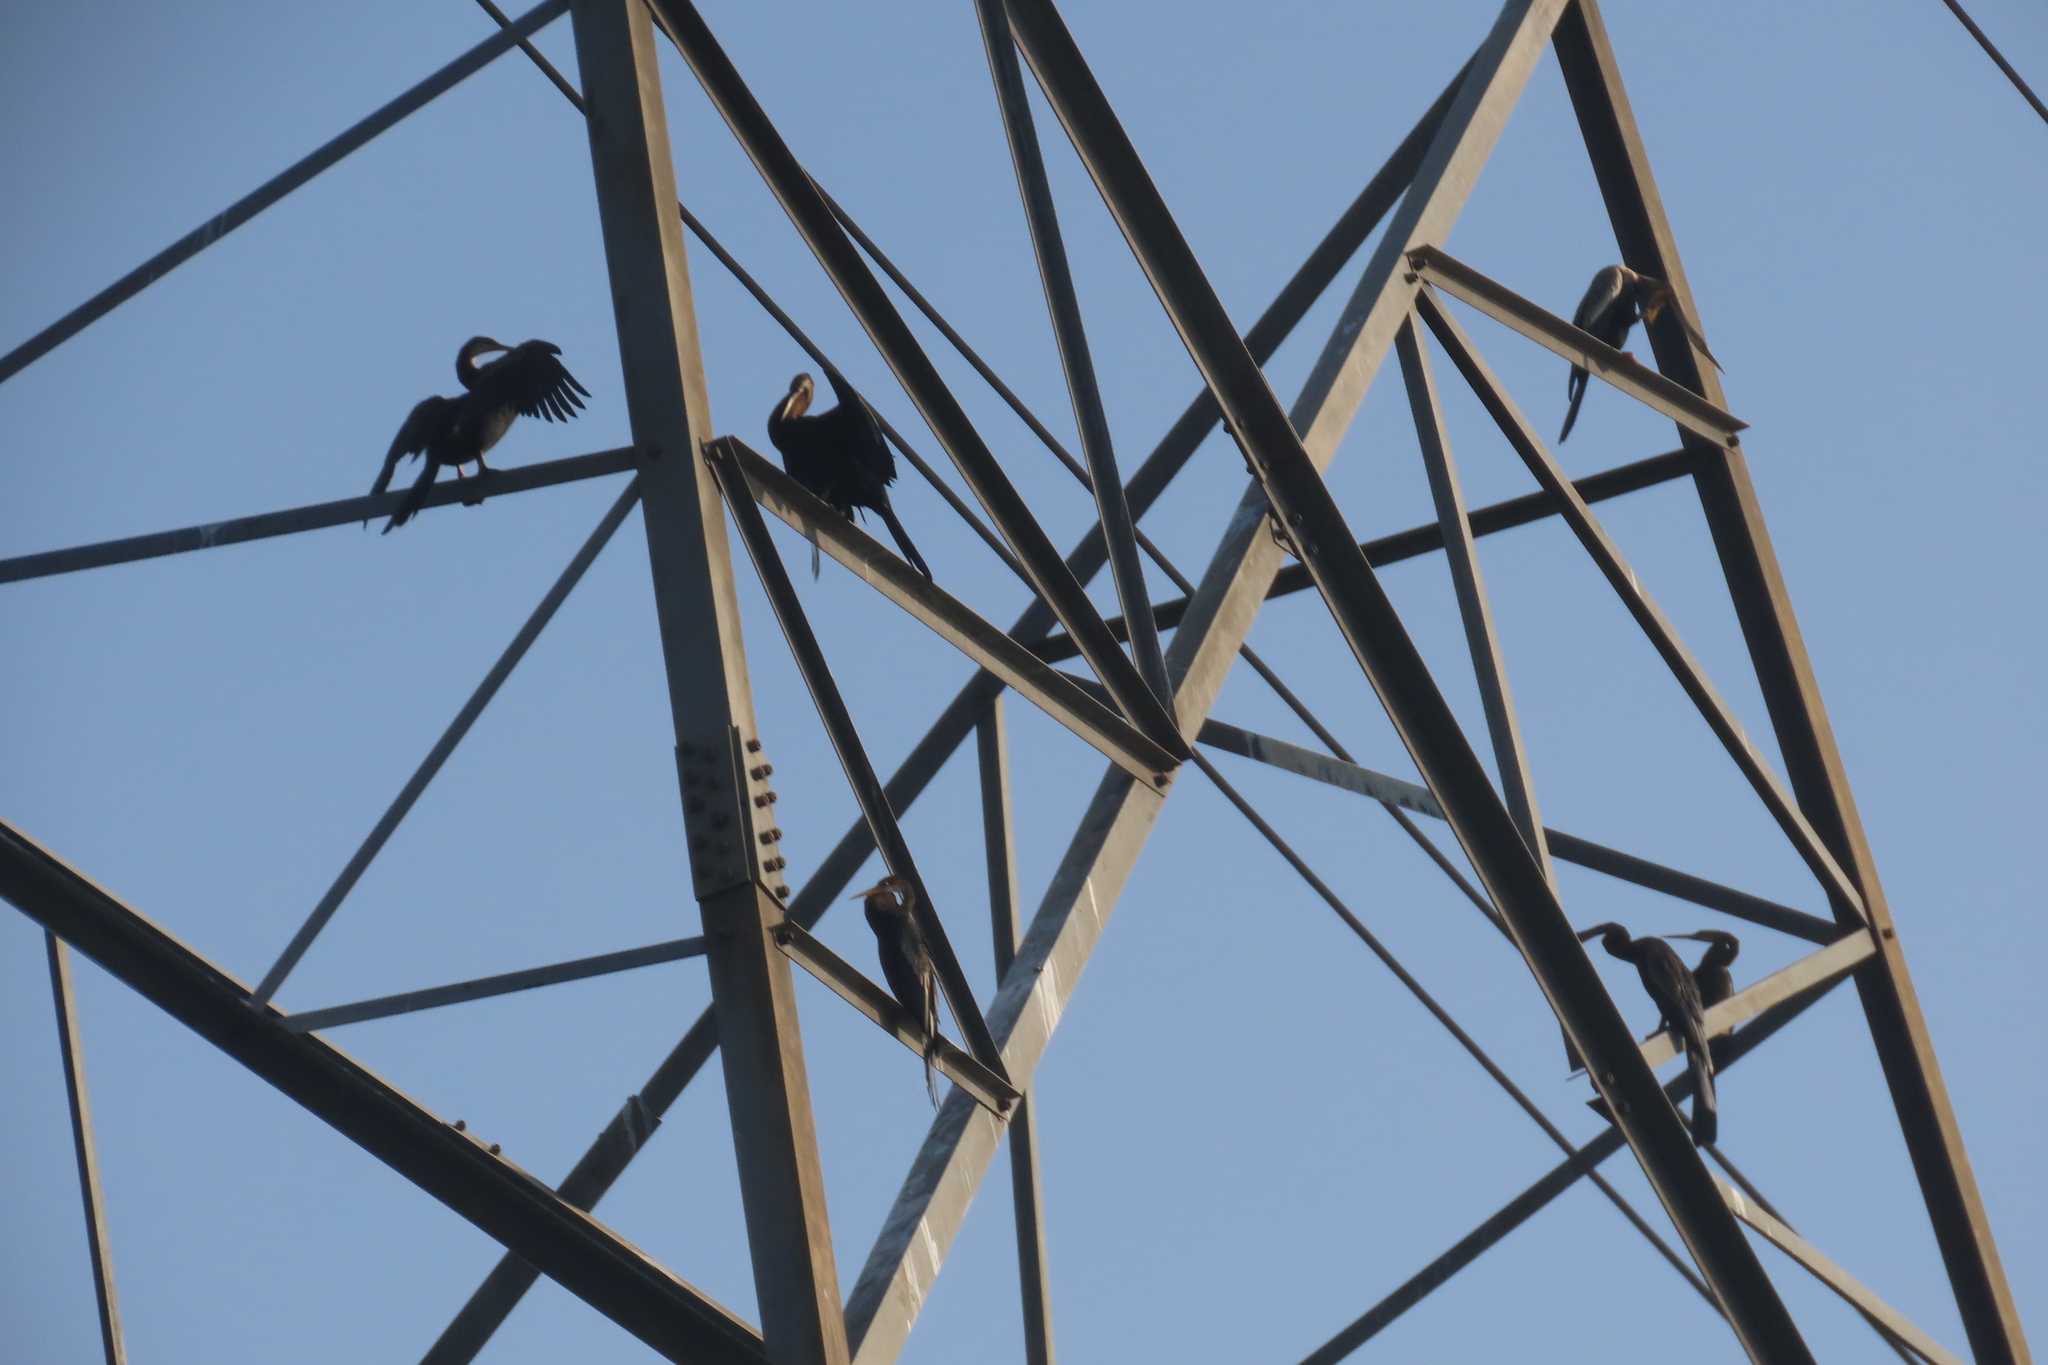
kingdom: Animalia
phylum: Chordata
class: Aves
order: Suliformes
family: Anhingidae
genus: Anhinga
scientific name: Anhinga melanogaster
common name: Oriental darter
